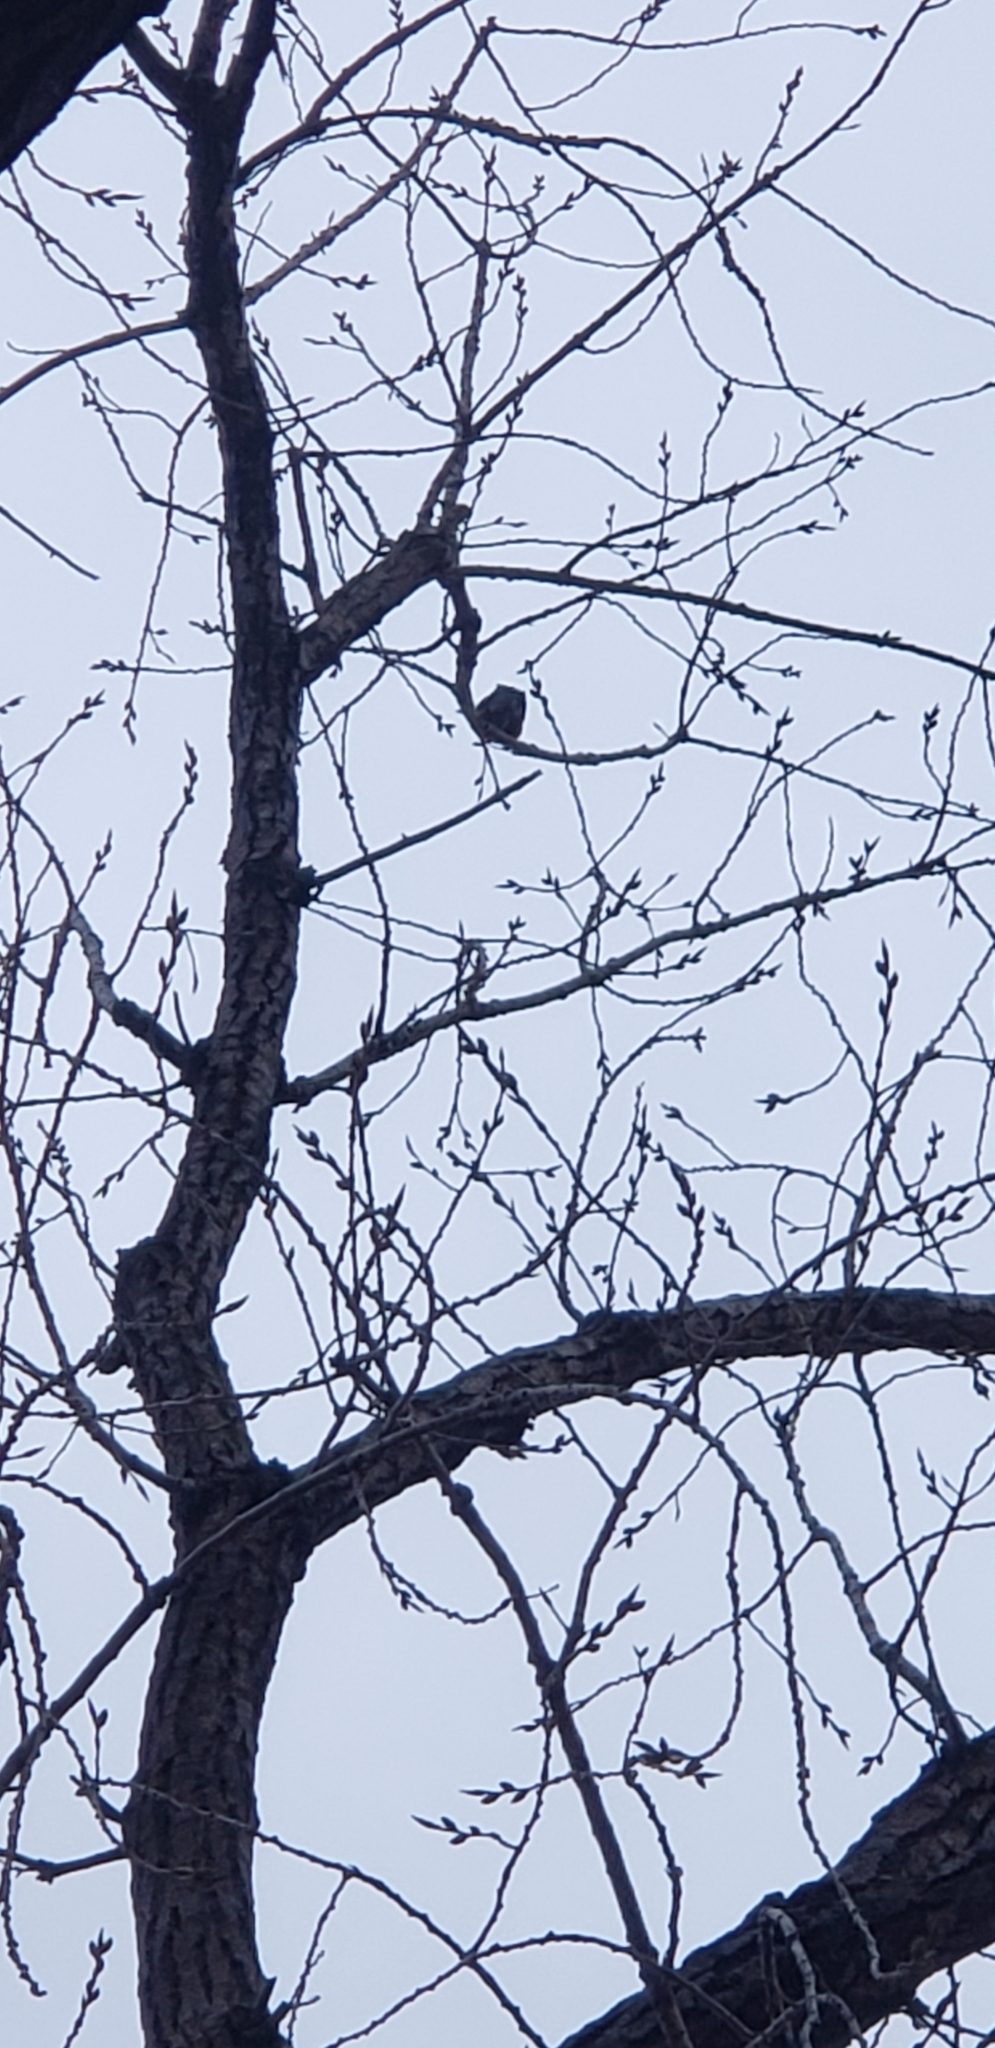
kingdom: Animalia
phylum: Chordata
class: Aves
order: Passeriformes
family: Turdidae
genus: Turdus
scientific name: Turdus migratorius
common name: American robin
